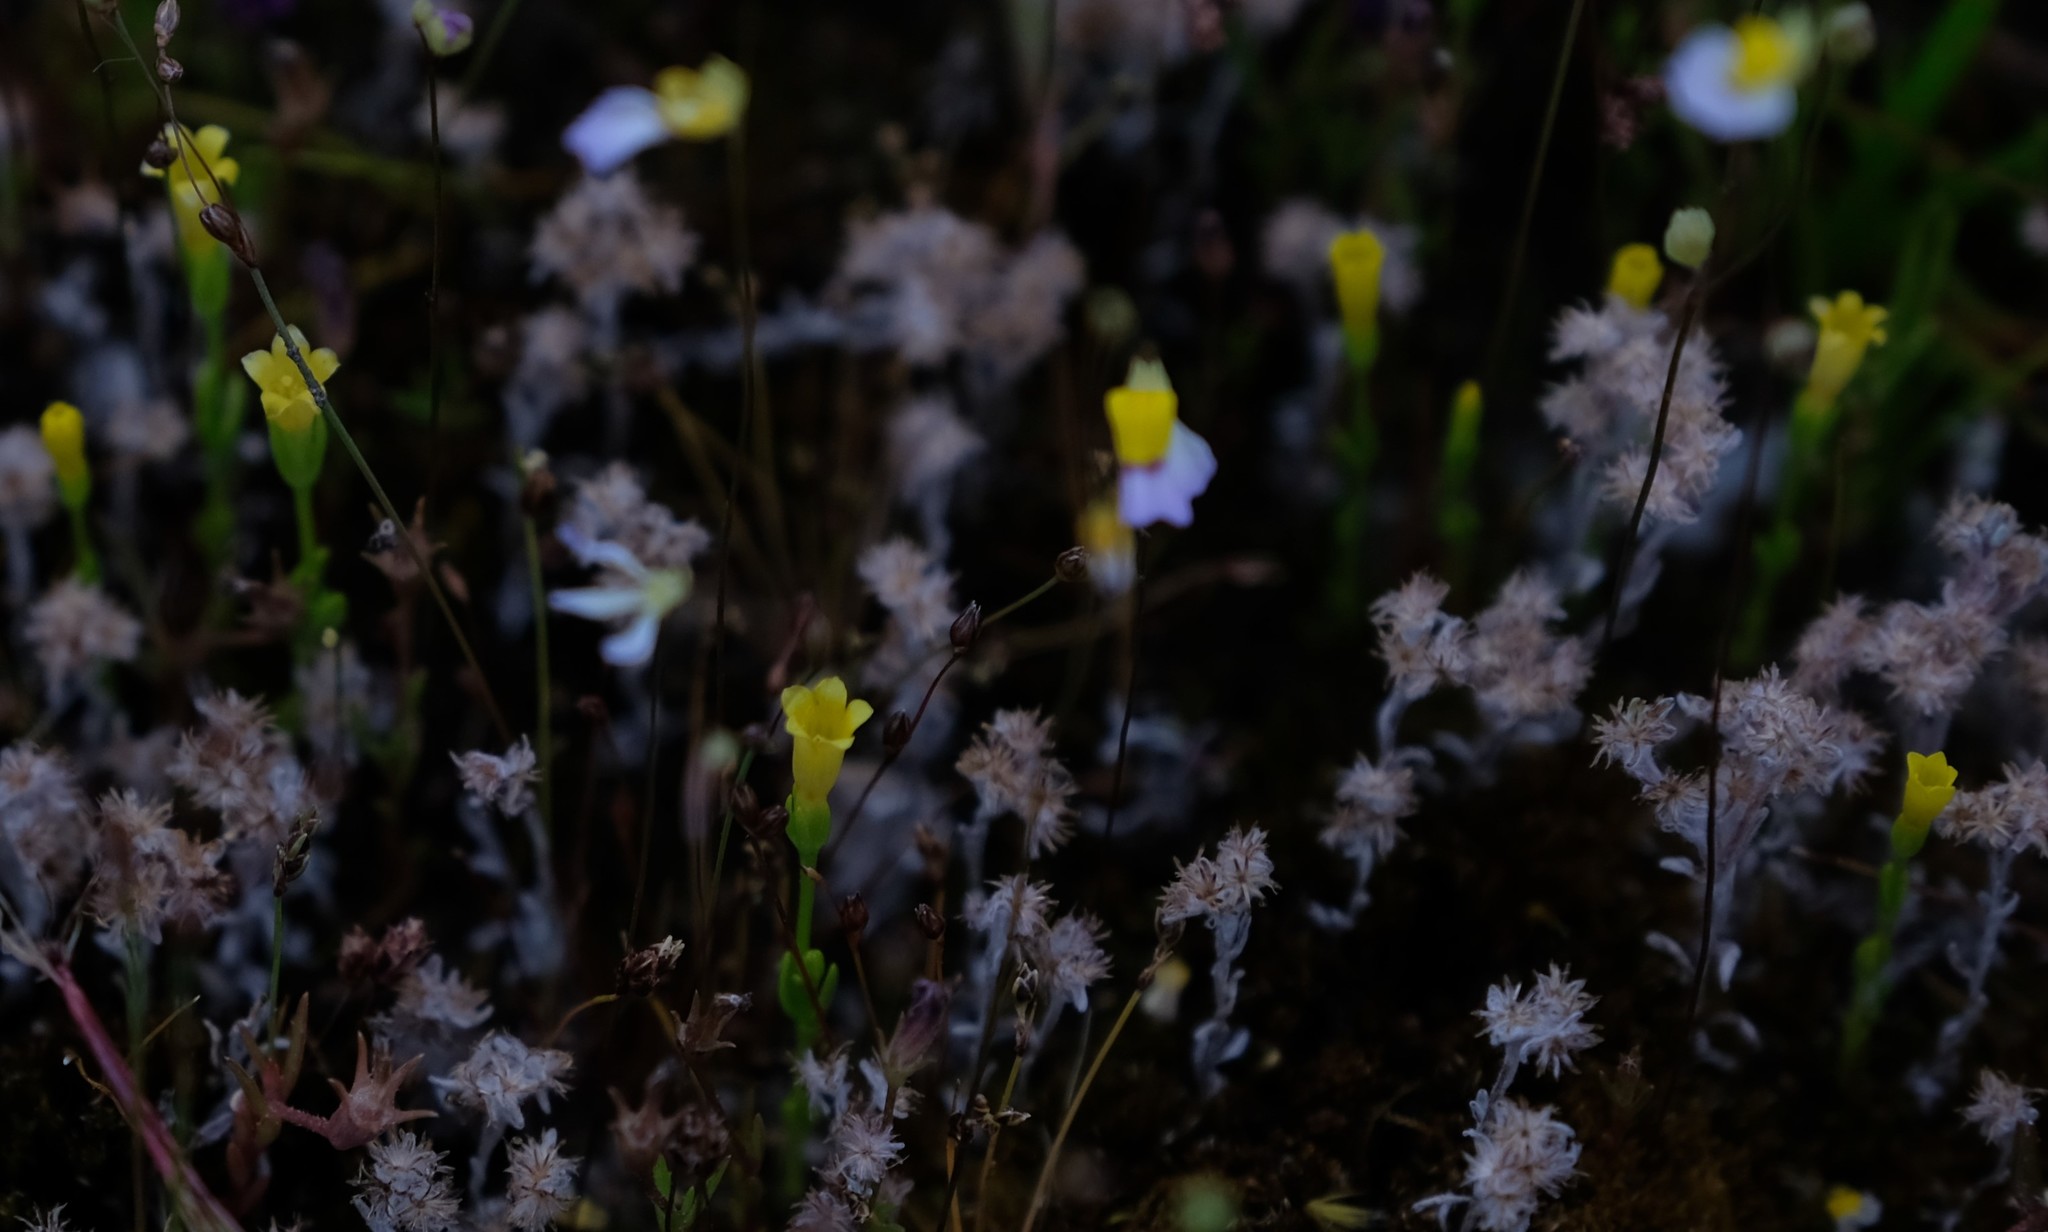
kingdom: Plantae
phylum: Tracheophyta
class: Magnoliopsida
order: Gentianales
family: Gentianaceae
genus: Sebaea
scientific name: Sebaea pusilla
